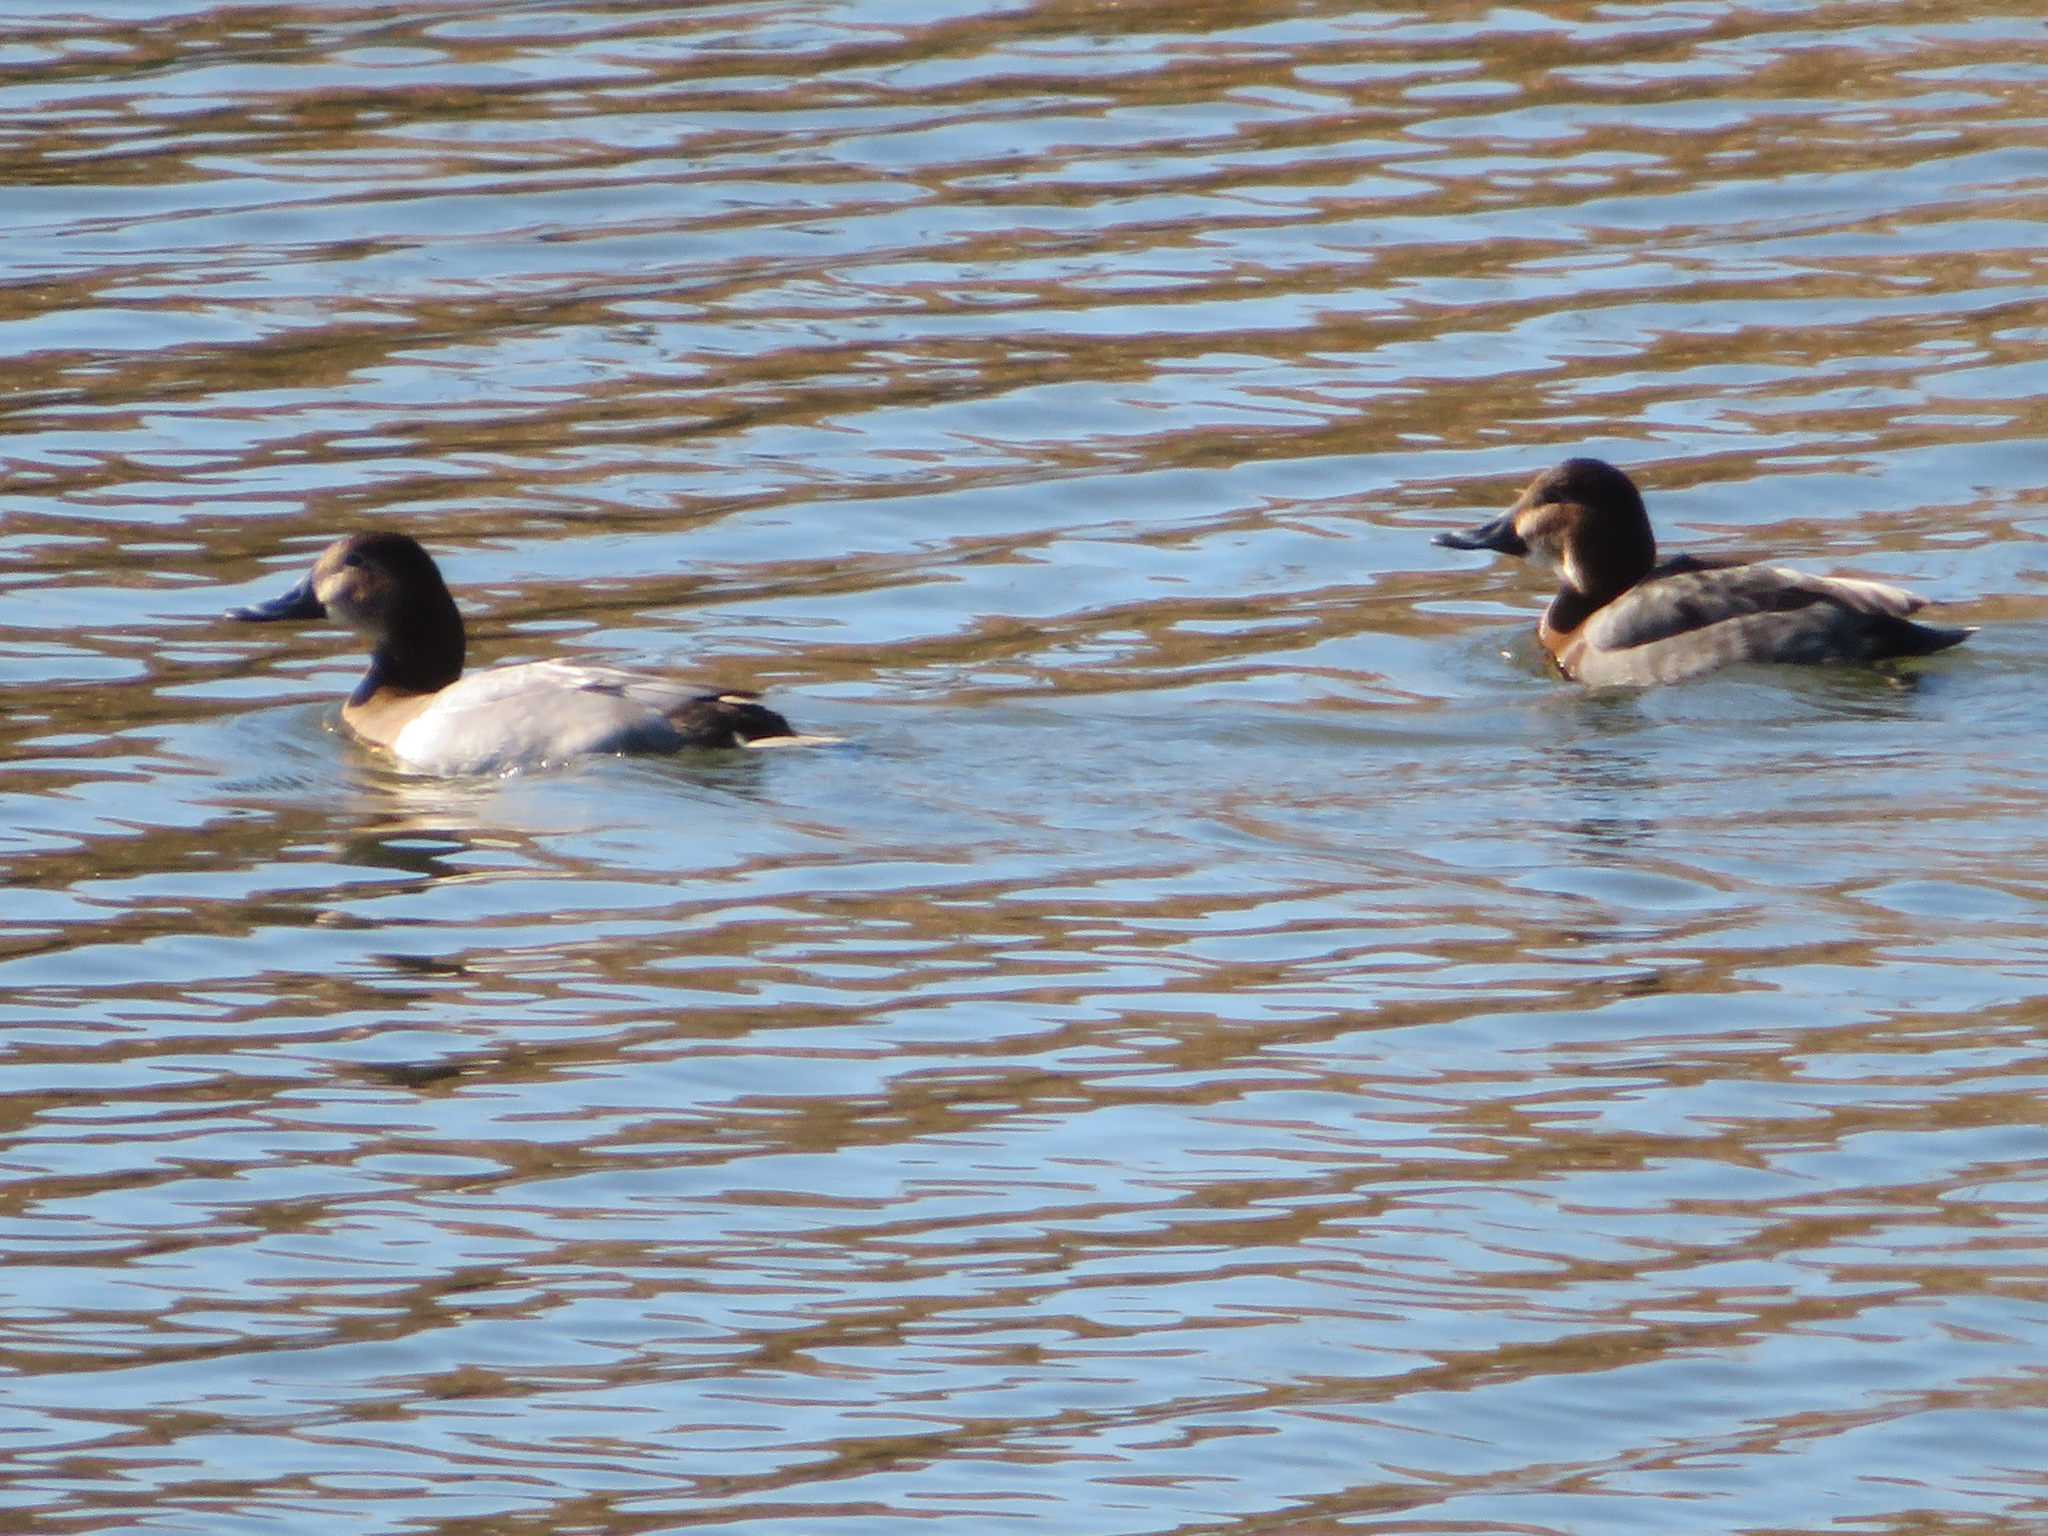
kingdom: Animalia
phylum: Chordata
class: Aves
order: Anseriformes
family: Anatidae
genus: Aythya
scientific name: Aythya ferina
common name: Common pochard
